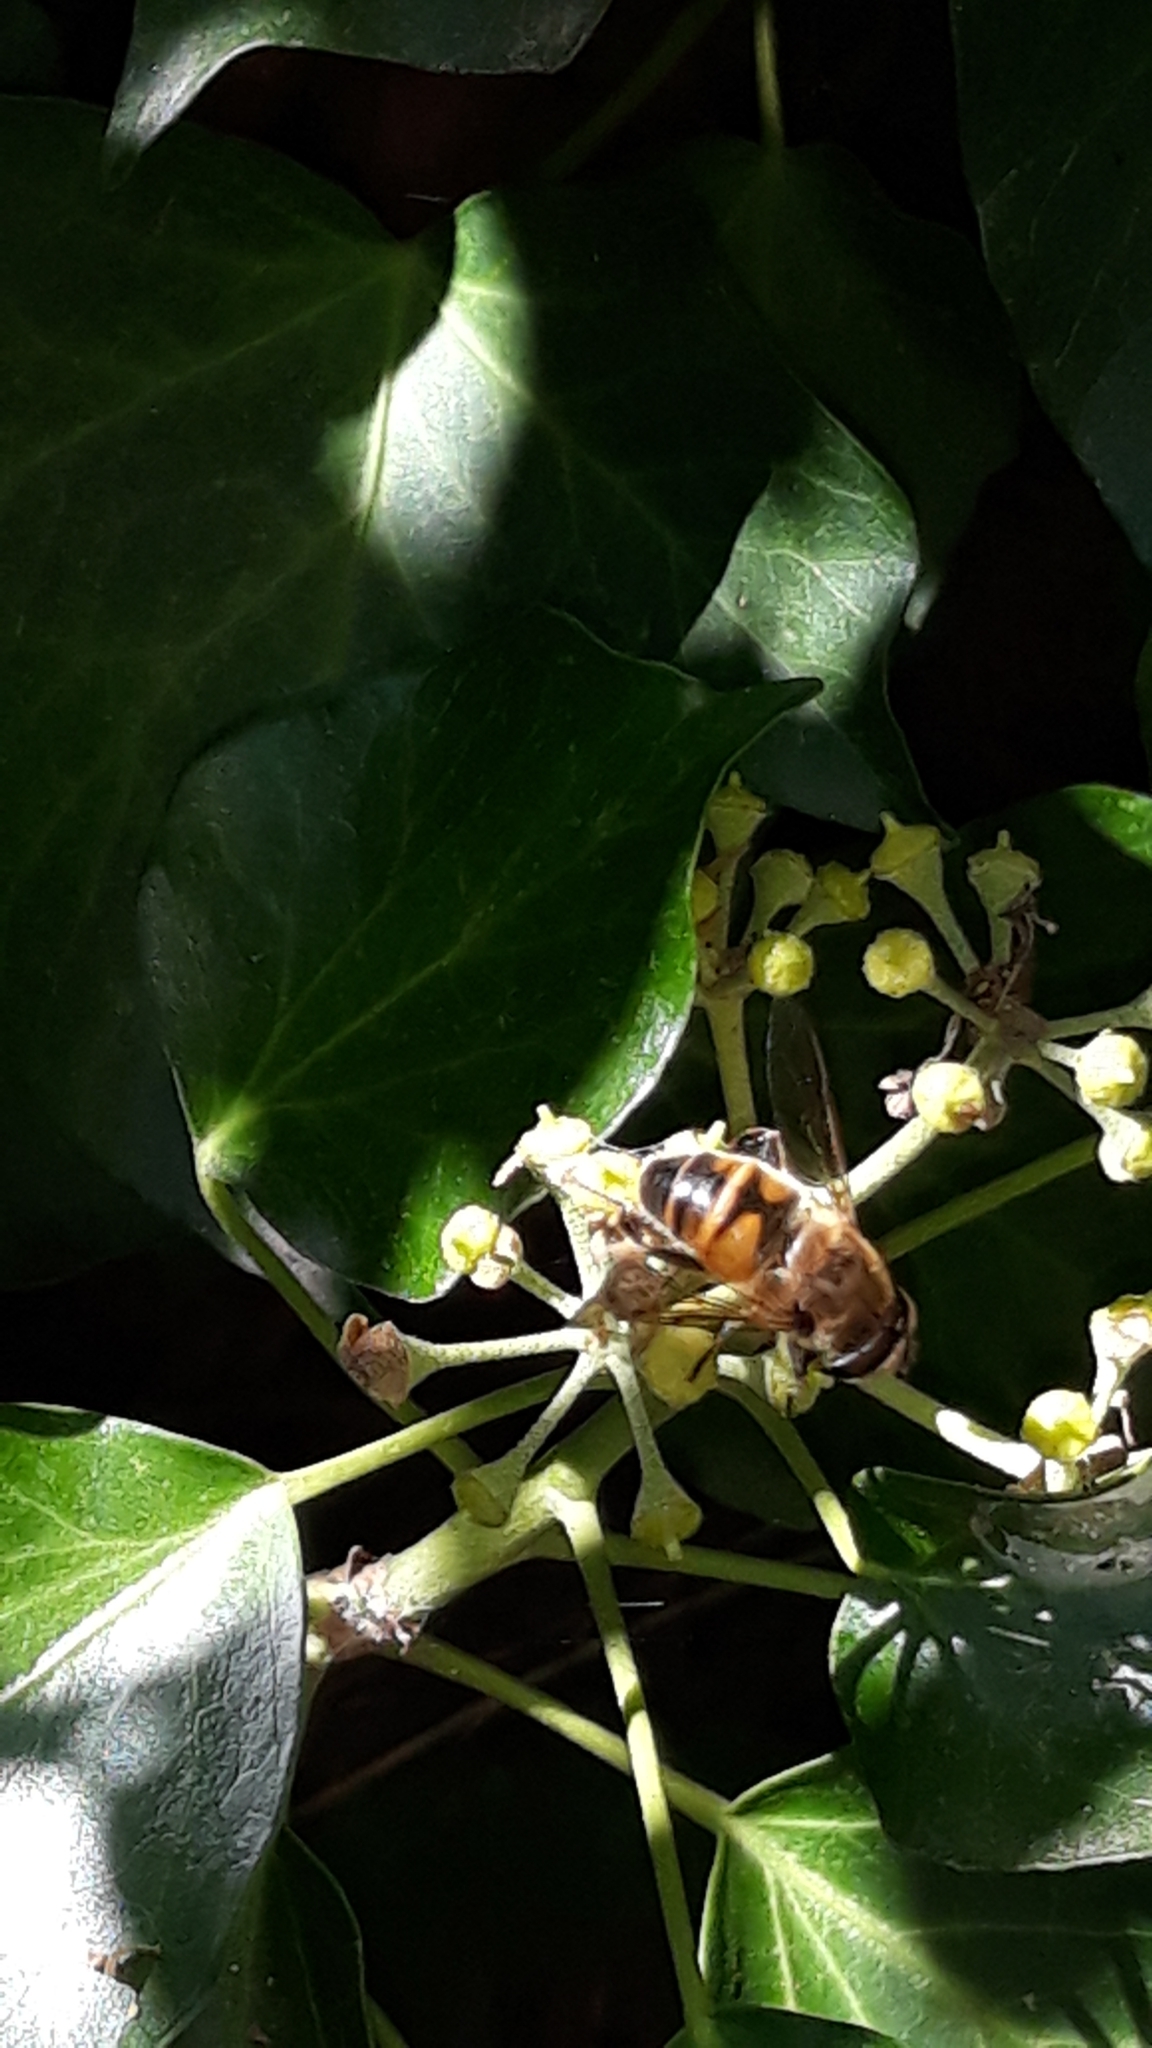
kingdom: Animalia
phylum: Arthropoda
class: Insecta
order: Diptera
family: Syrphidae
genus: Eristalis
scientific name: Eristalis tenax
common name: Drone fly
